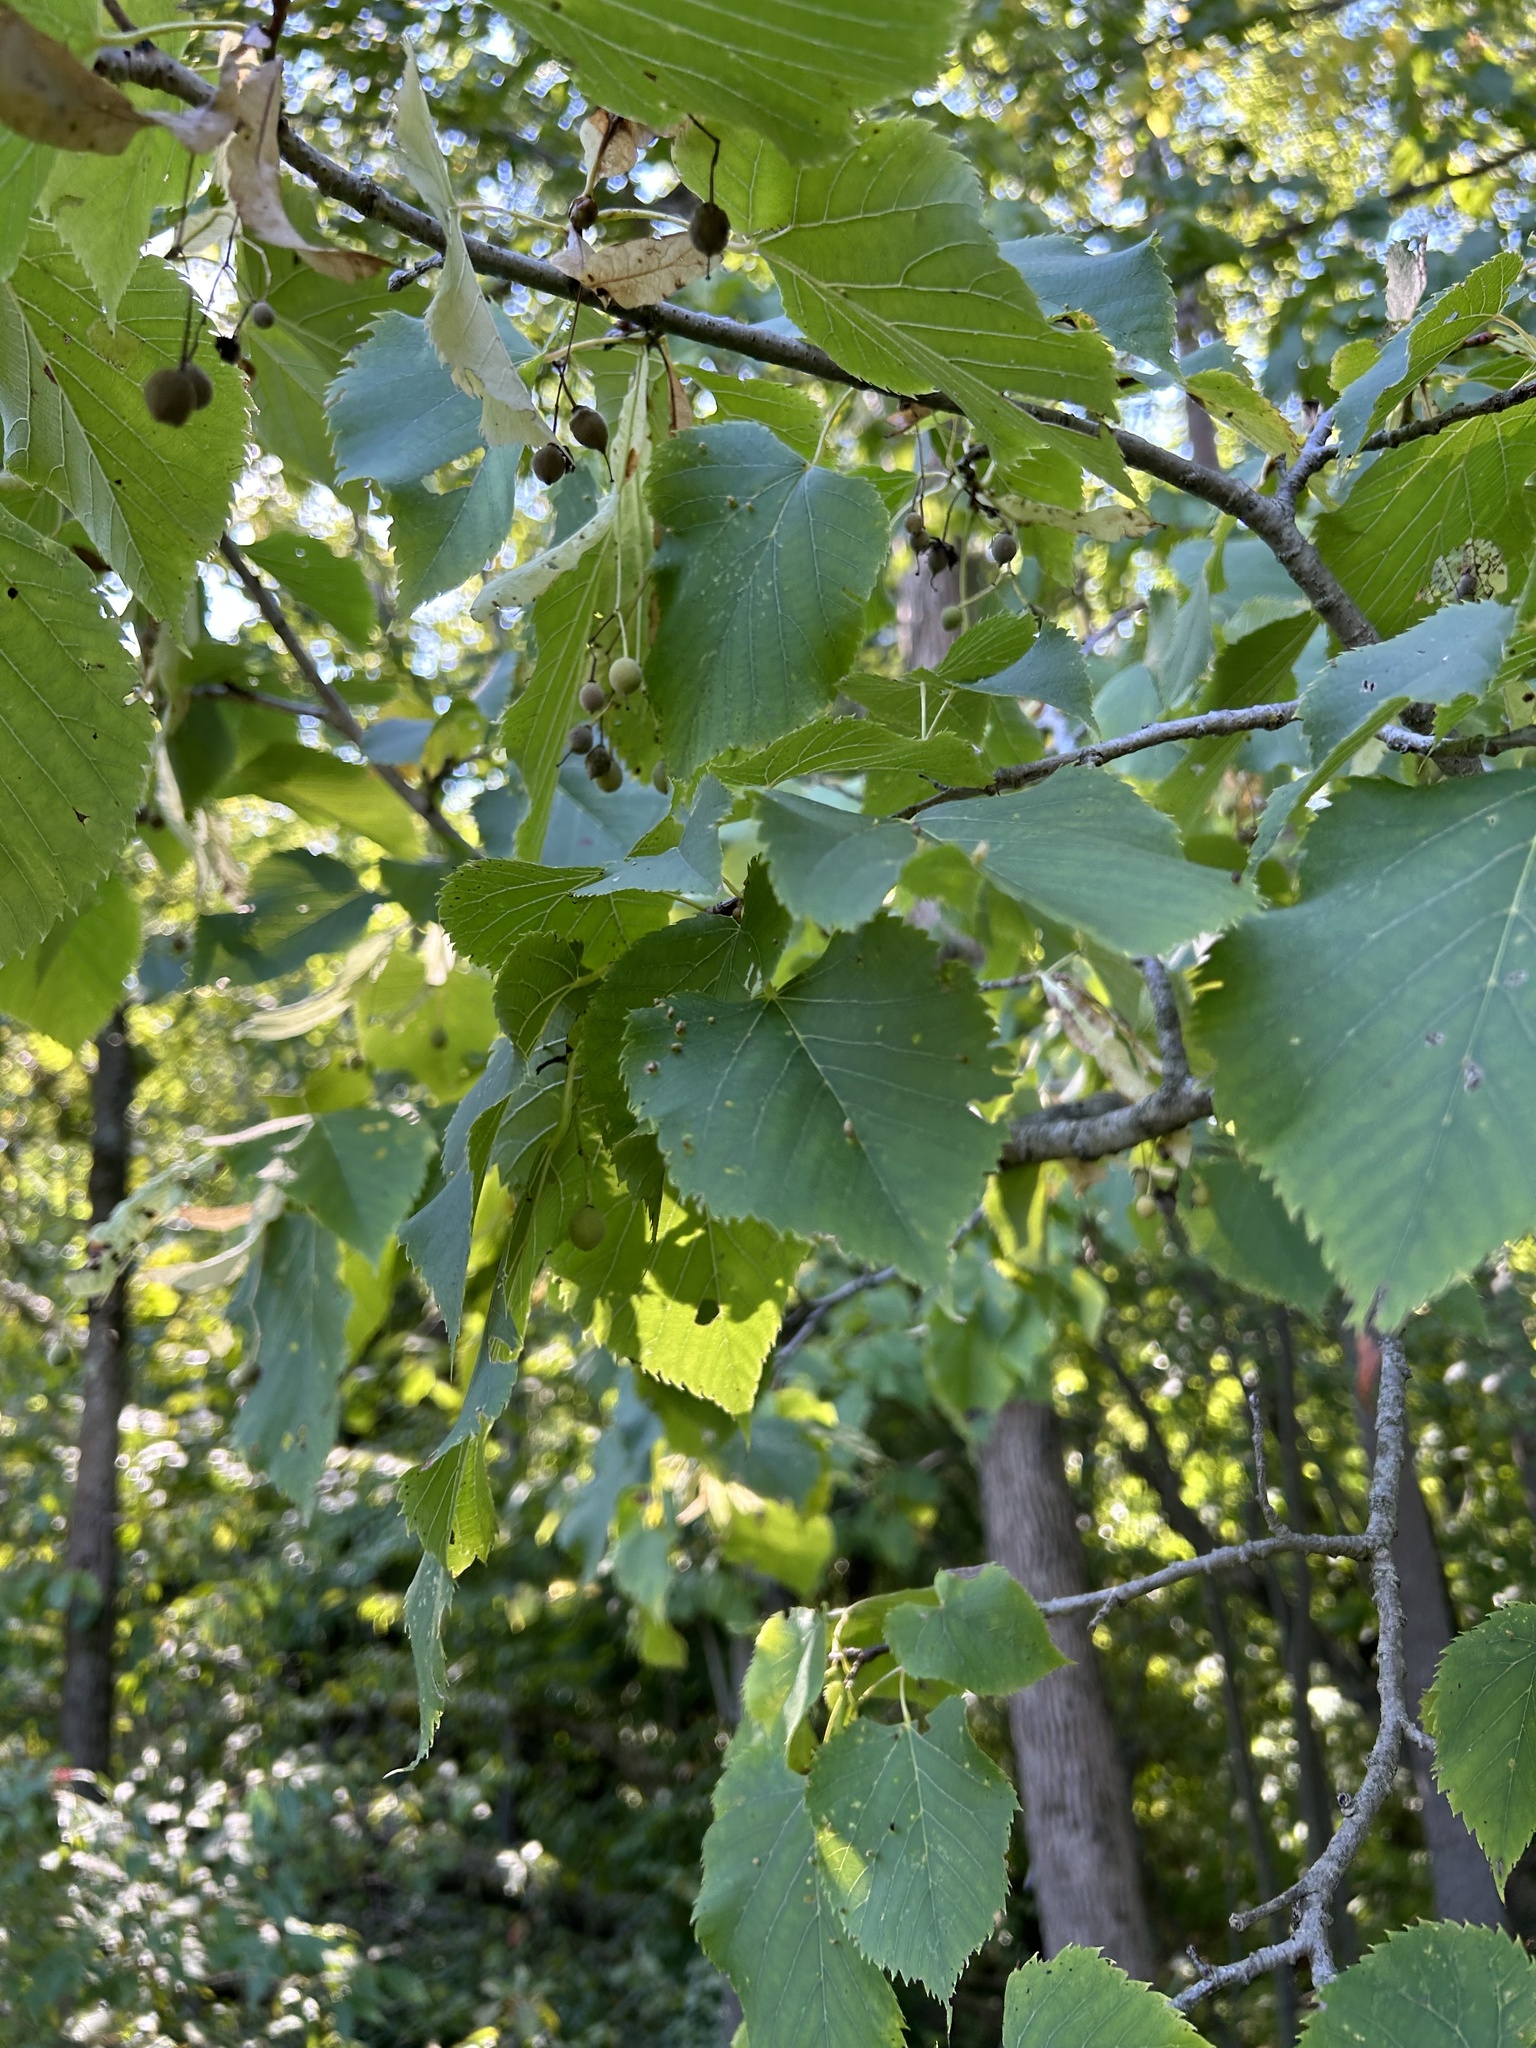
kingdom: Plantae
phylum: Tracheophyta
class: Magnoliopsida
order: Malvales
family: Malvaceae
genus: Tilia
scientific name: Tilia americana
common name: Basswood
